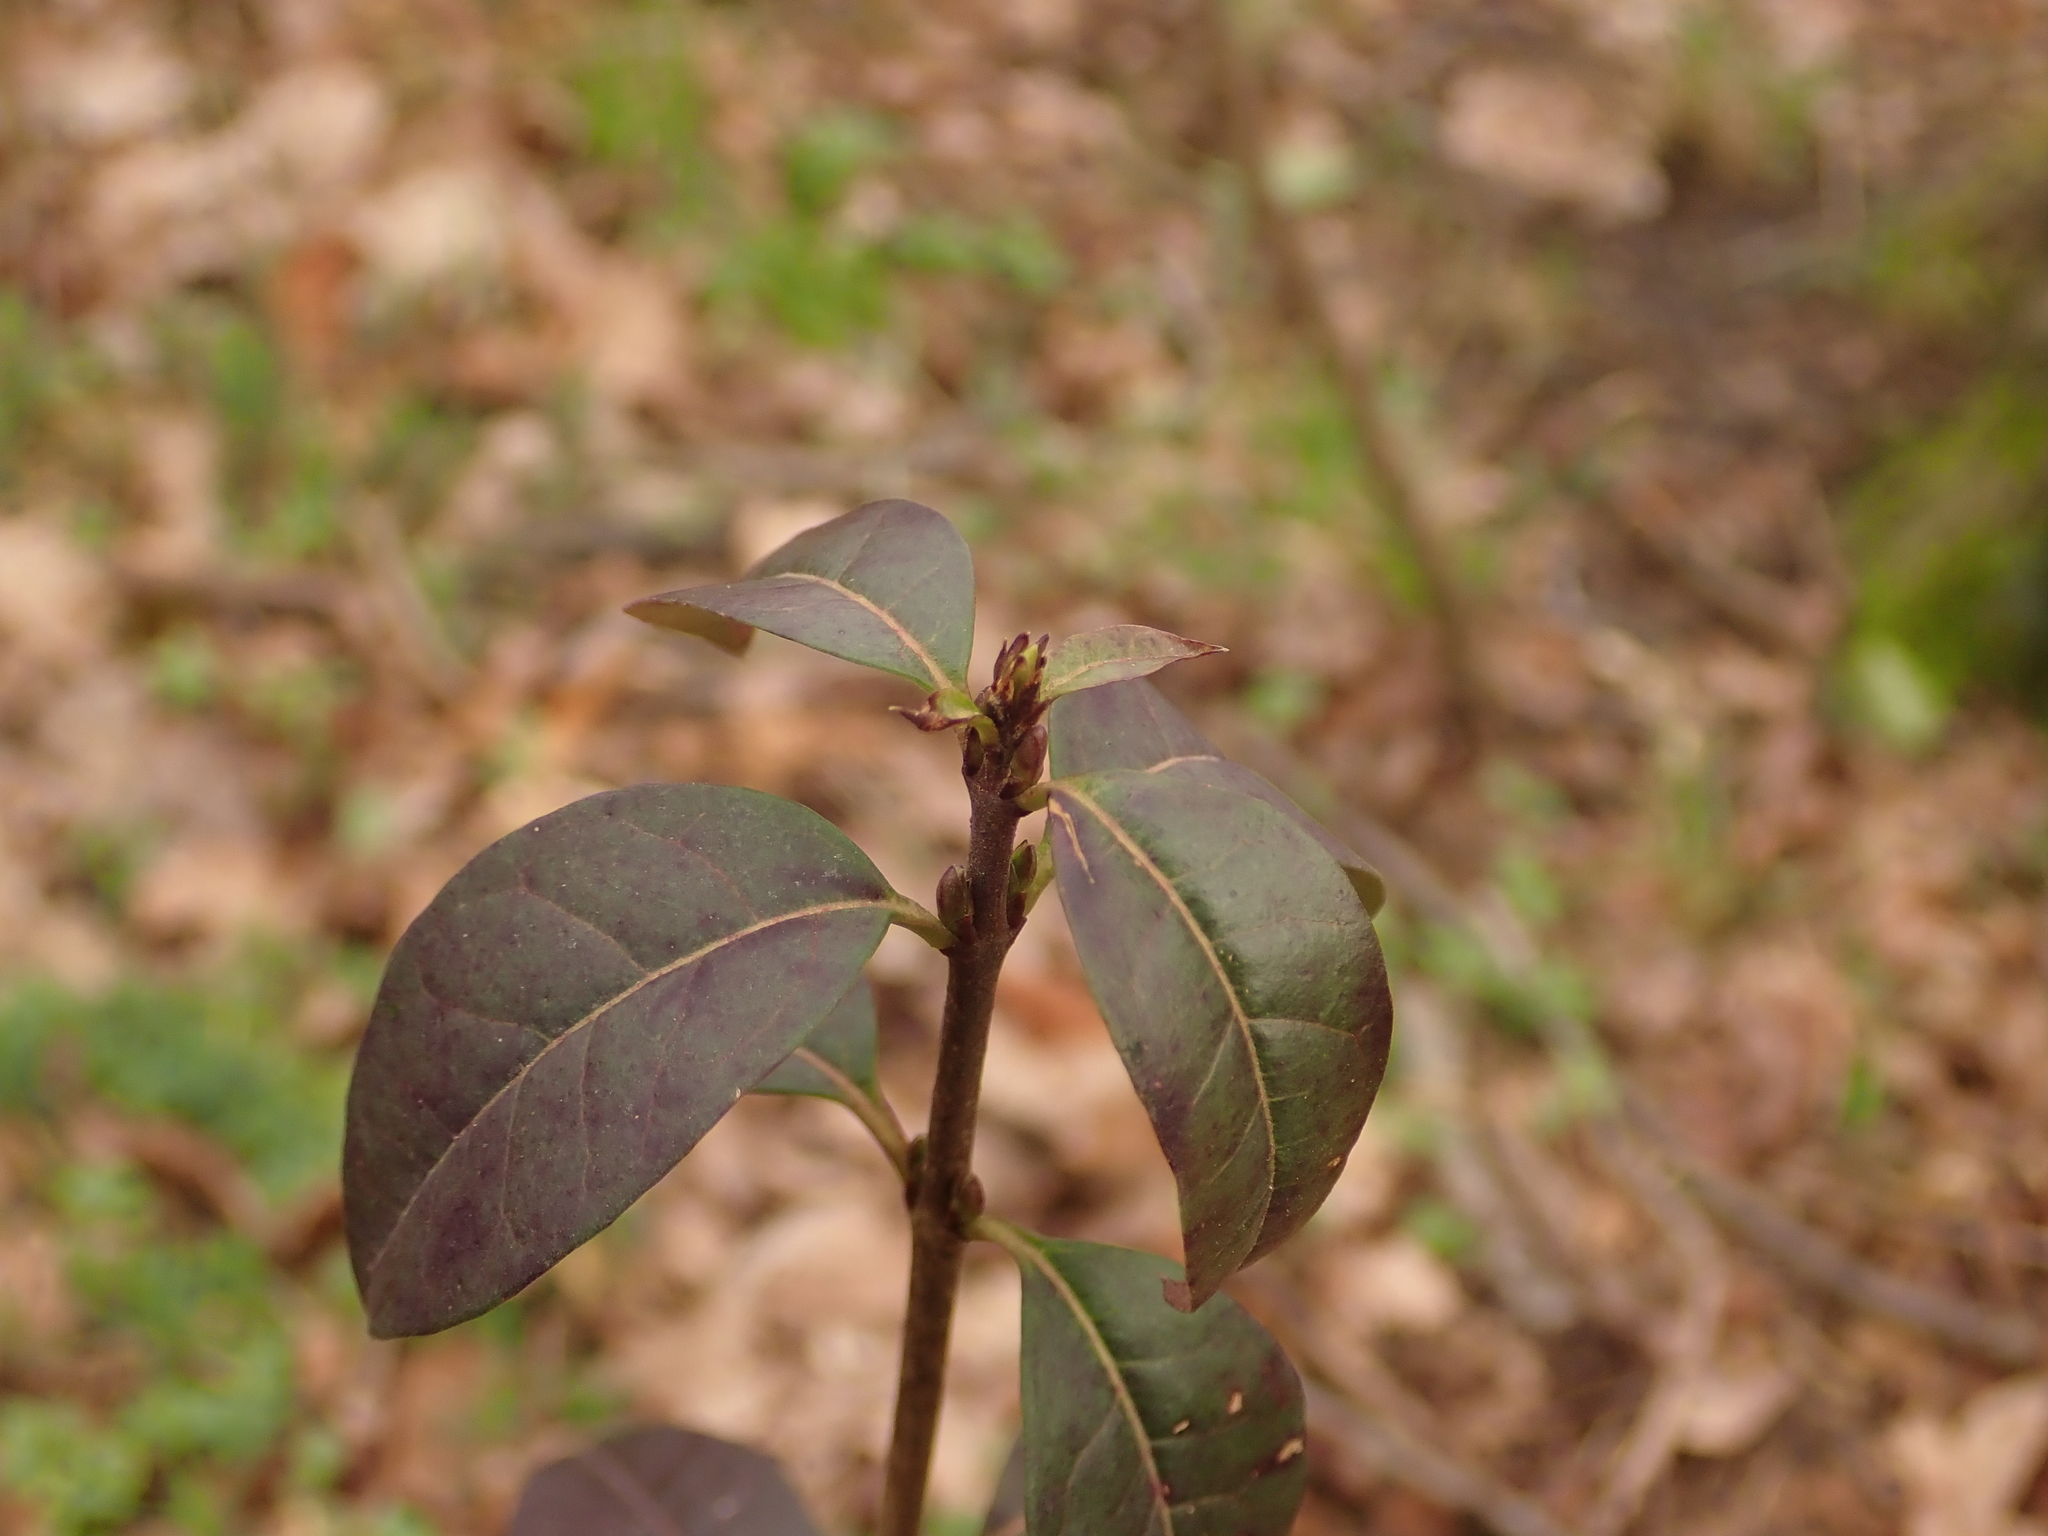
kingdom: Plantae
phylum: Tracheophyta
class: Magnoliopsida
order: Lamiales
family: Oleaceae
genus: Ligustrum
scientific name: Ligustrum vulgare
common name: Wild privet
